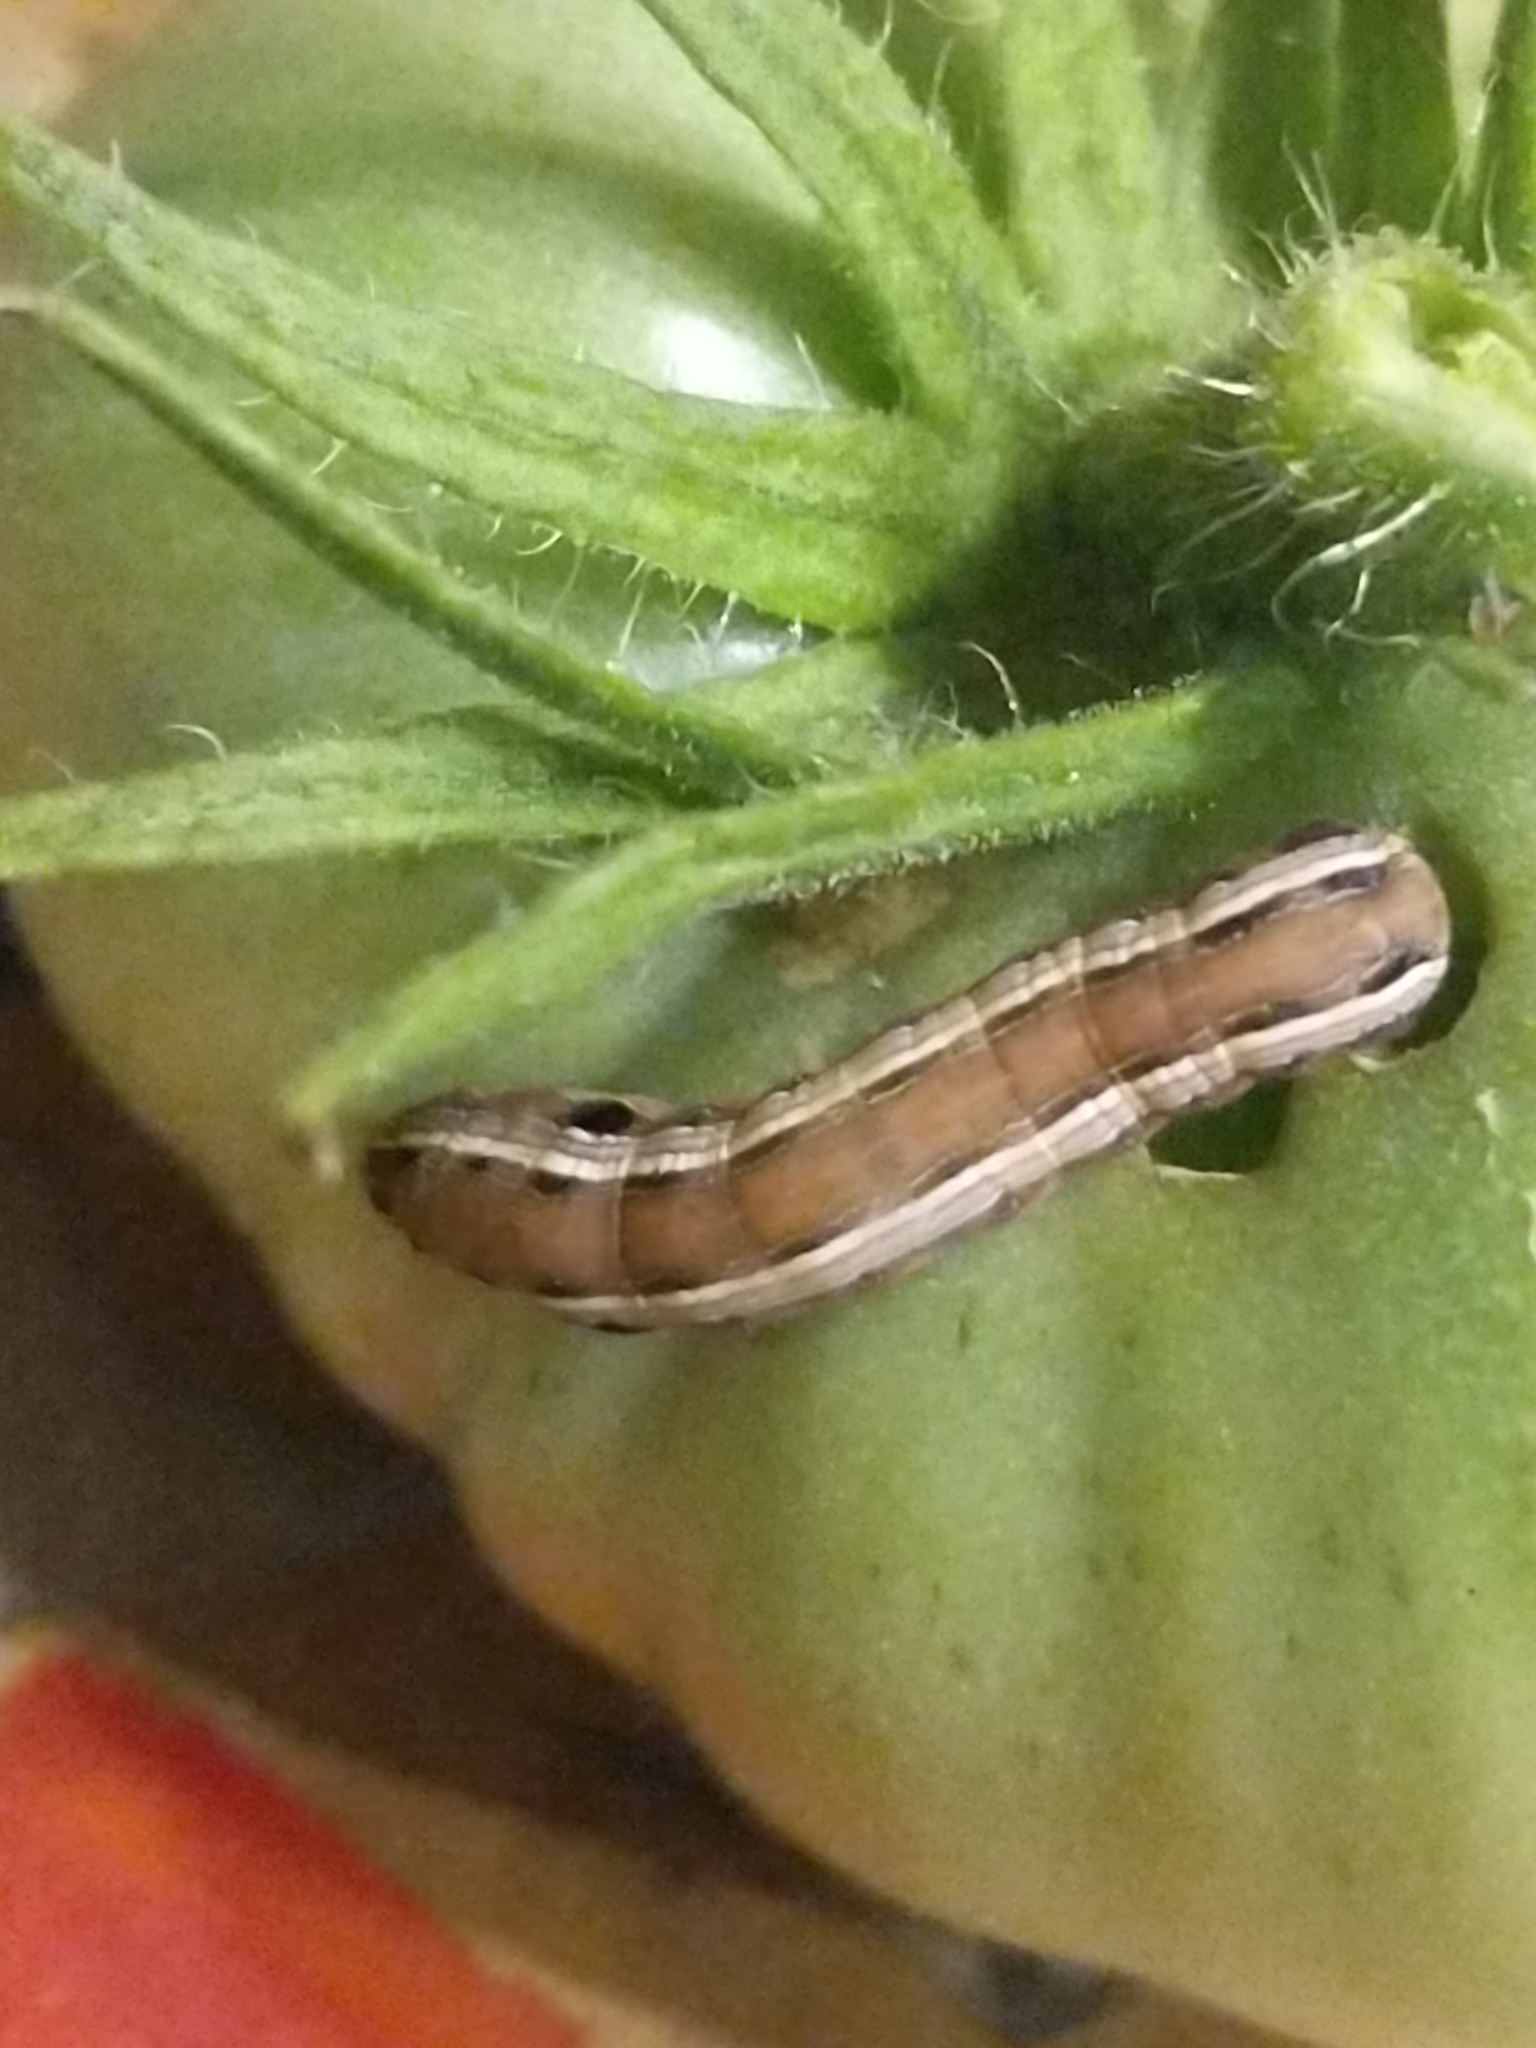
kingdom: Animalia
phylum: Arthropoda
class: Insecta
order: Lepidoptera
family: Noctuidae
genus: Spodoptera
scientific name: Spodoptera ornithogalli
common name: Yellow-striped armyworm
